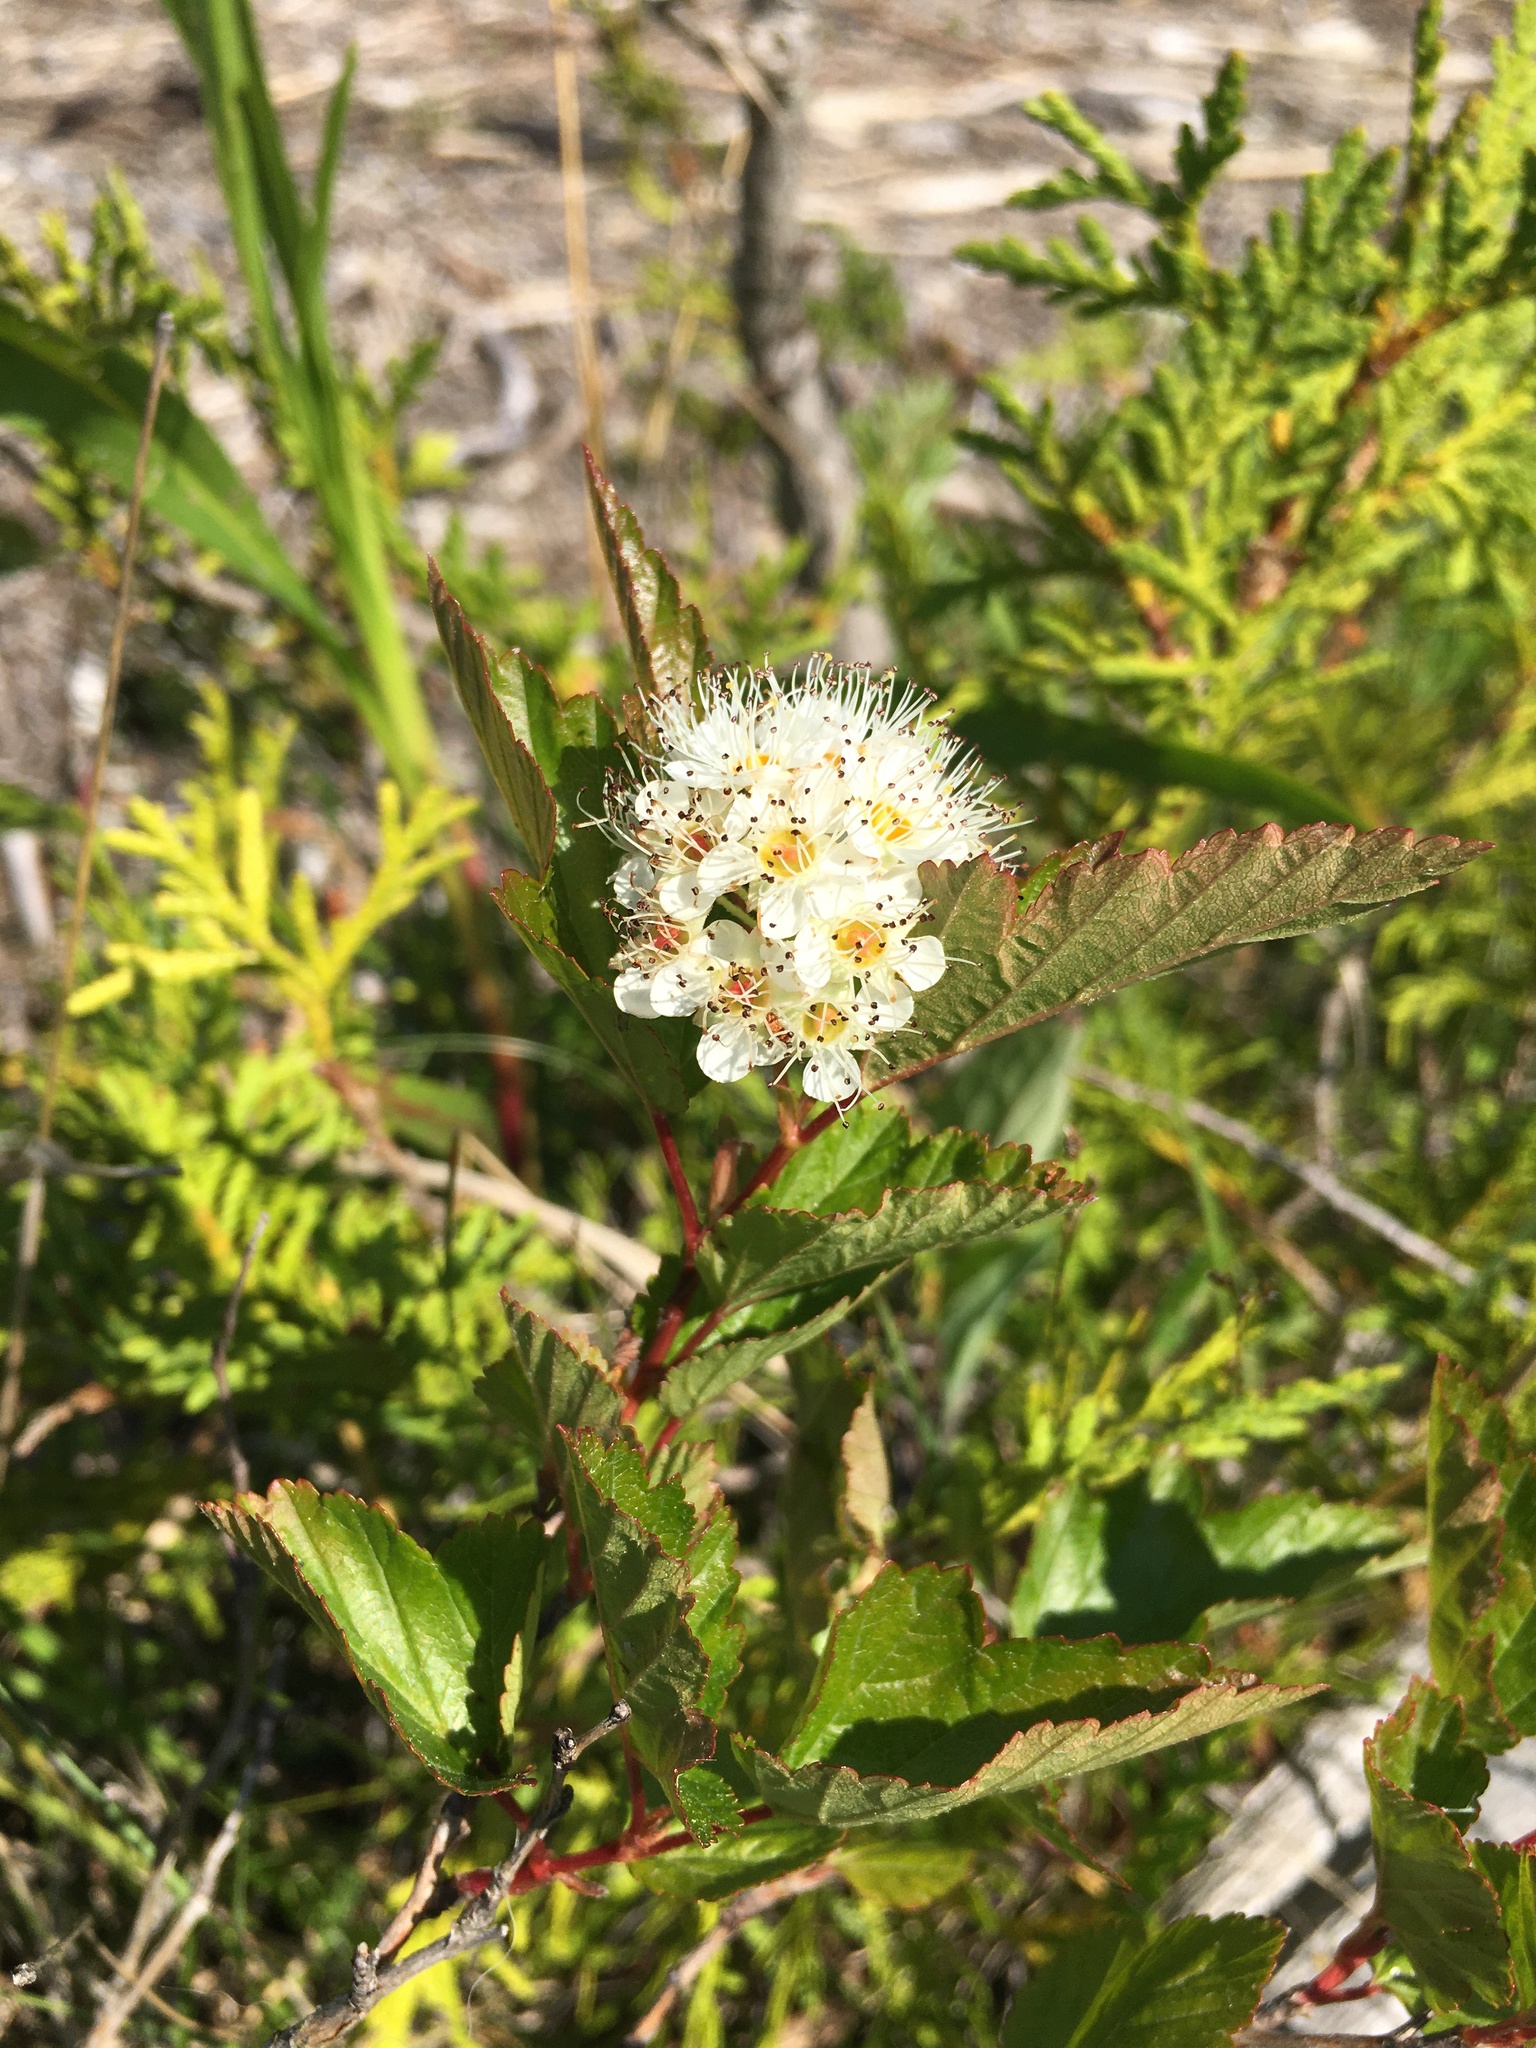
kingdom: Plantae
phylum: Tracheophyta
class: Magnoliopsida
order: Rosales
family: Rosaceae
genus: Physocarpus
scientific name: Physocarpus opulifolius
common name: Ninebark
